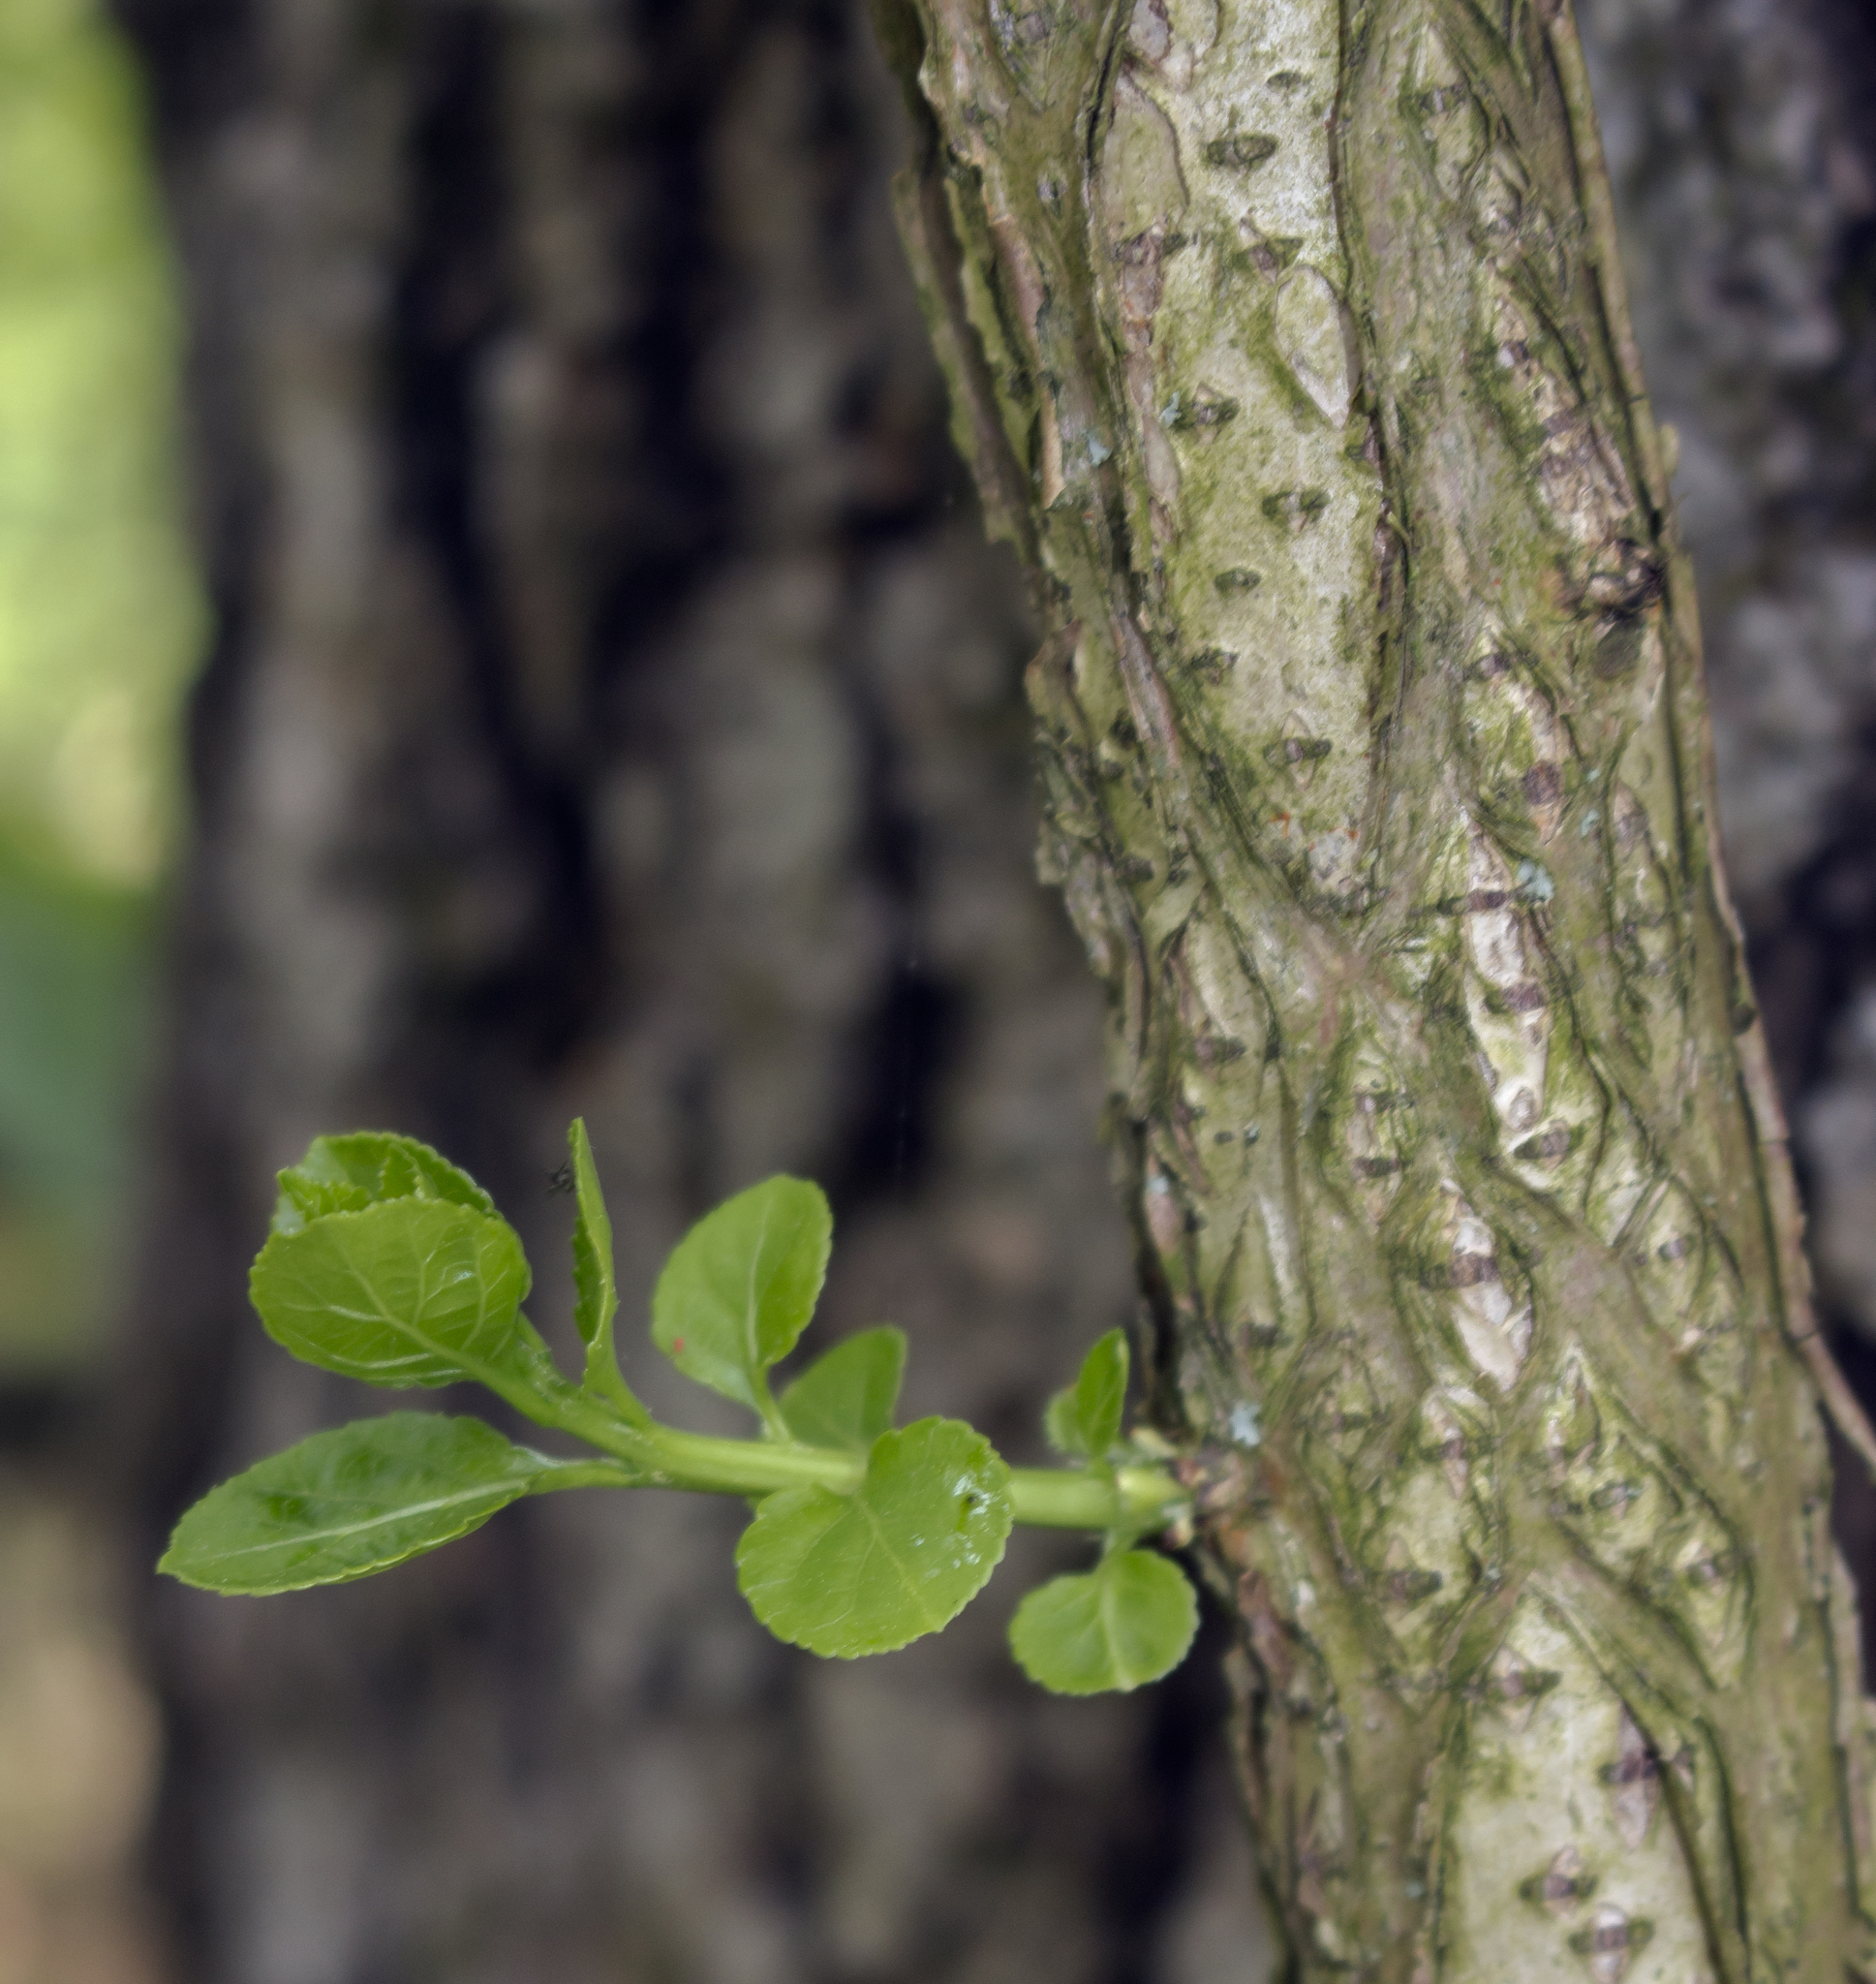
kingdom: Plantae
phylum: Tracheophyta
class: Magnoliopsida
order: Celastrales
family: Celastraceae
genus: Celastrus
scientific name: Celastrus orbiculatus
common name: Oriental bittersweet
